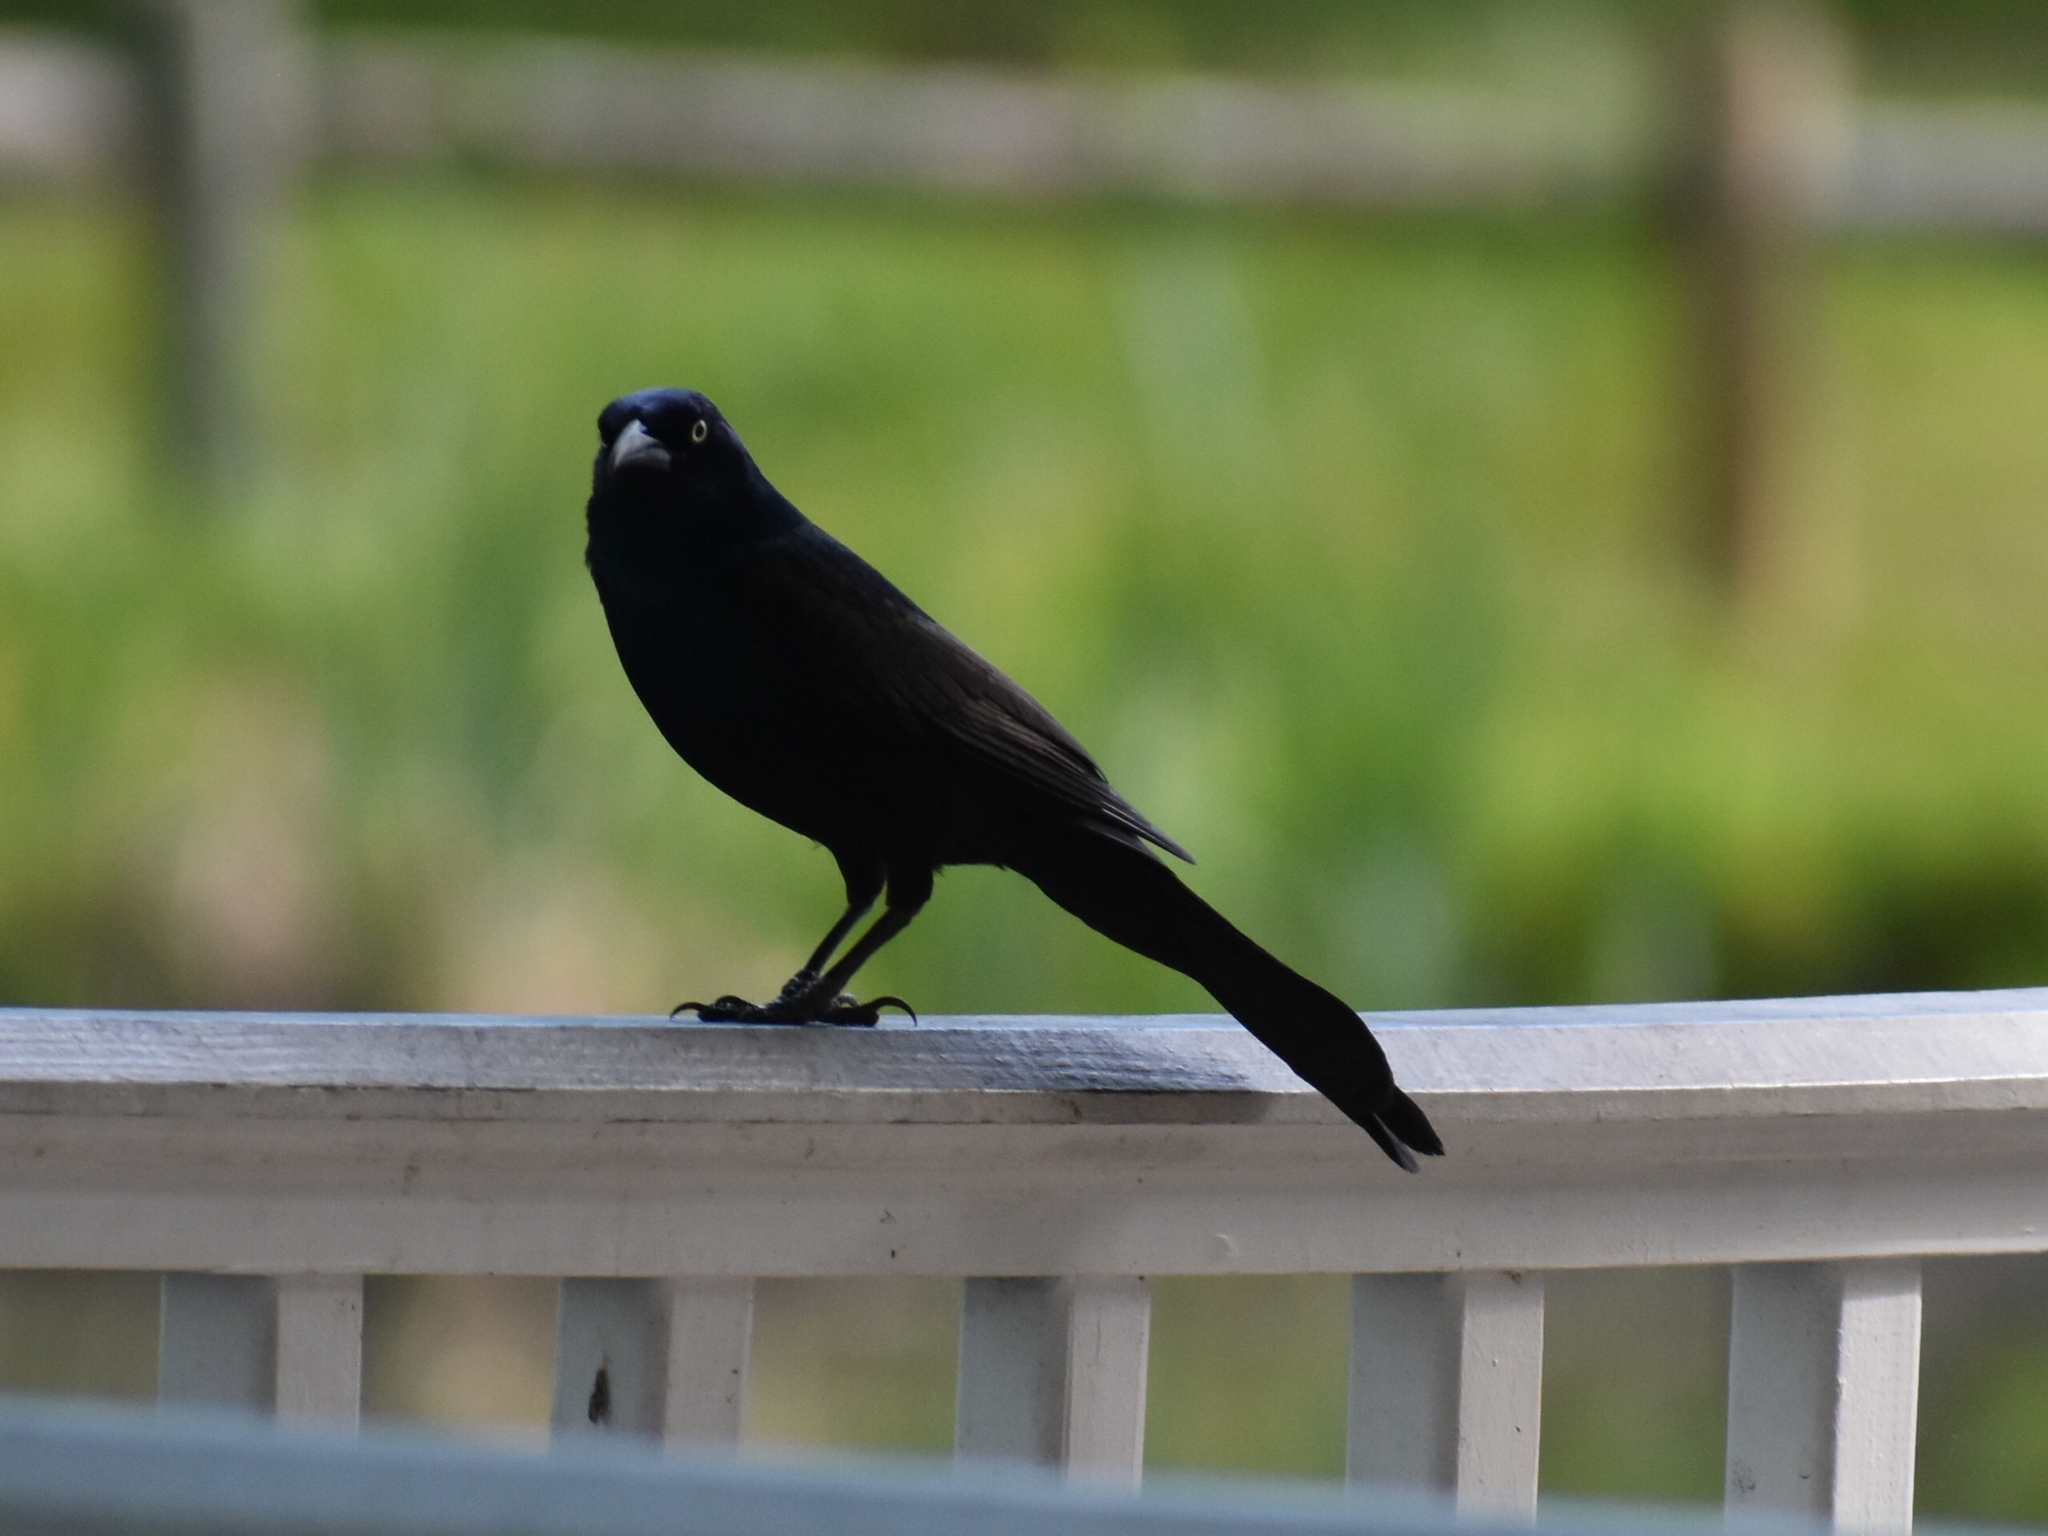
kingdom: Animalia
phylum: Chordata
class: Aves
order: Passeriformes
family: Icteridae
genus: Quiscalus
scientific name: Quiscalus quiscula
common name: Common grackle
